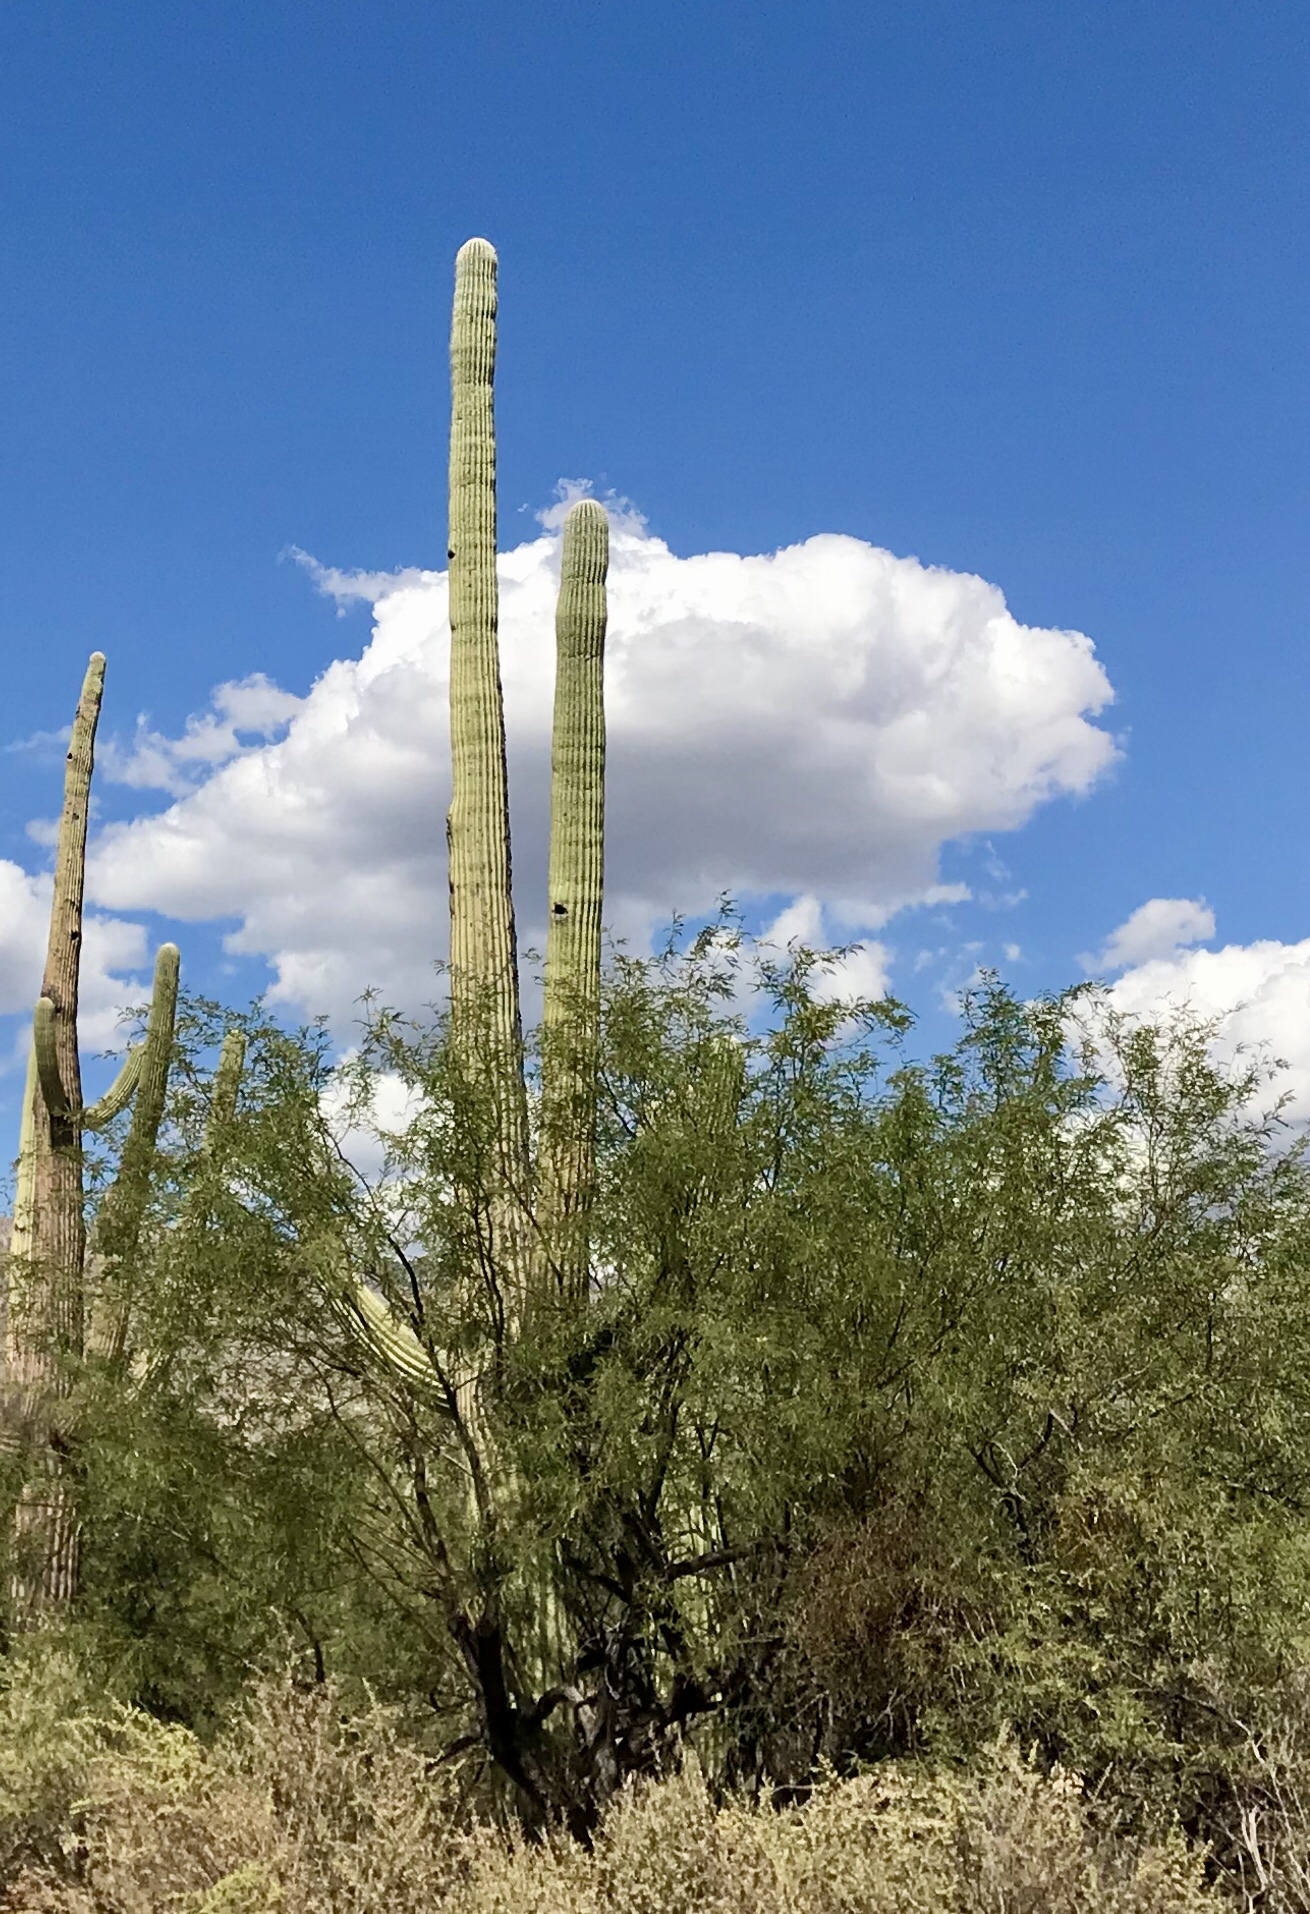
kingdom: Plantae
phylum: Tracheophyta
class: Magnoliopsida
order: Caryophyllales
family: Cactaceae
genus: Carnegiea
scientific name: Carnegiea gigantea
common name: Saguaro
